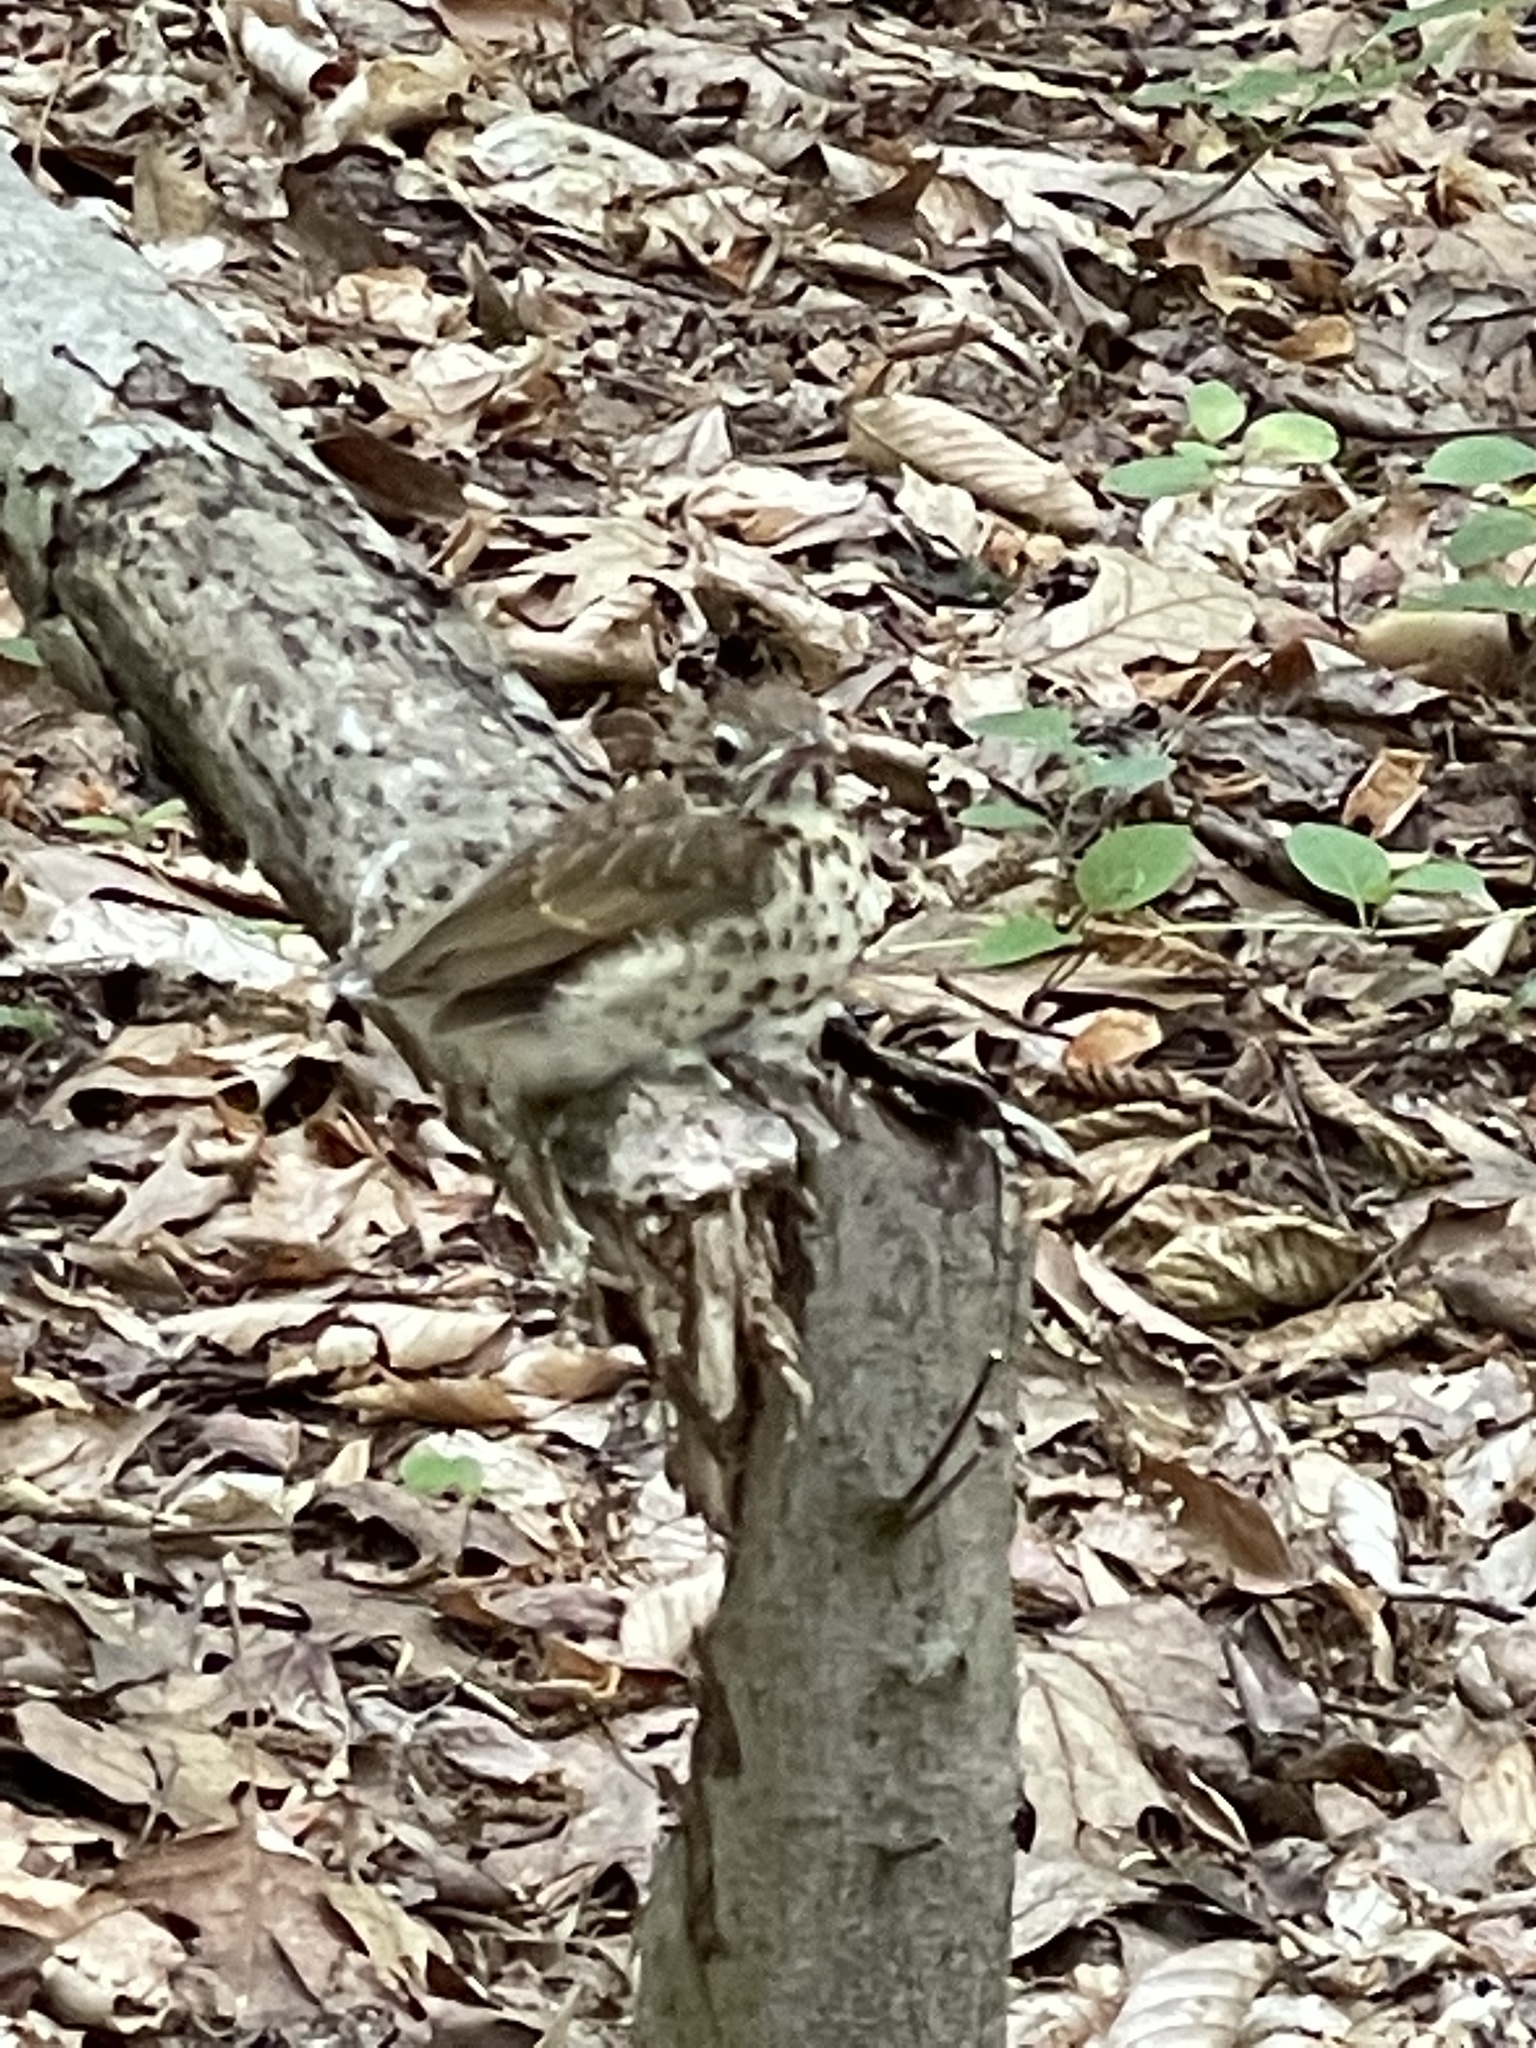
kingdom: Animalia
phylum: Chordata
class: Aves
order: Passeriformes
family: Turdidae
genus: Hylocichla
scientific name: Hylocichla mustelina
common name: Wood thrush
